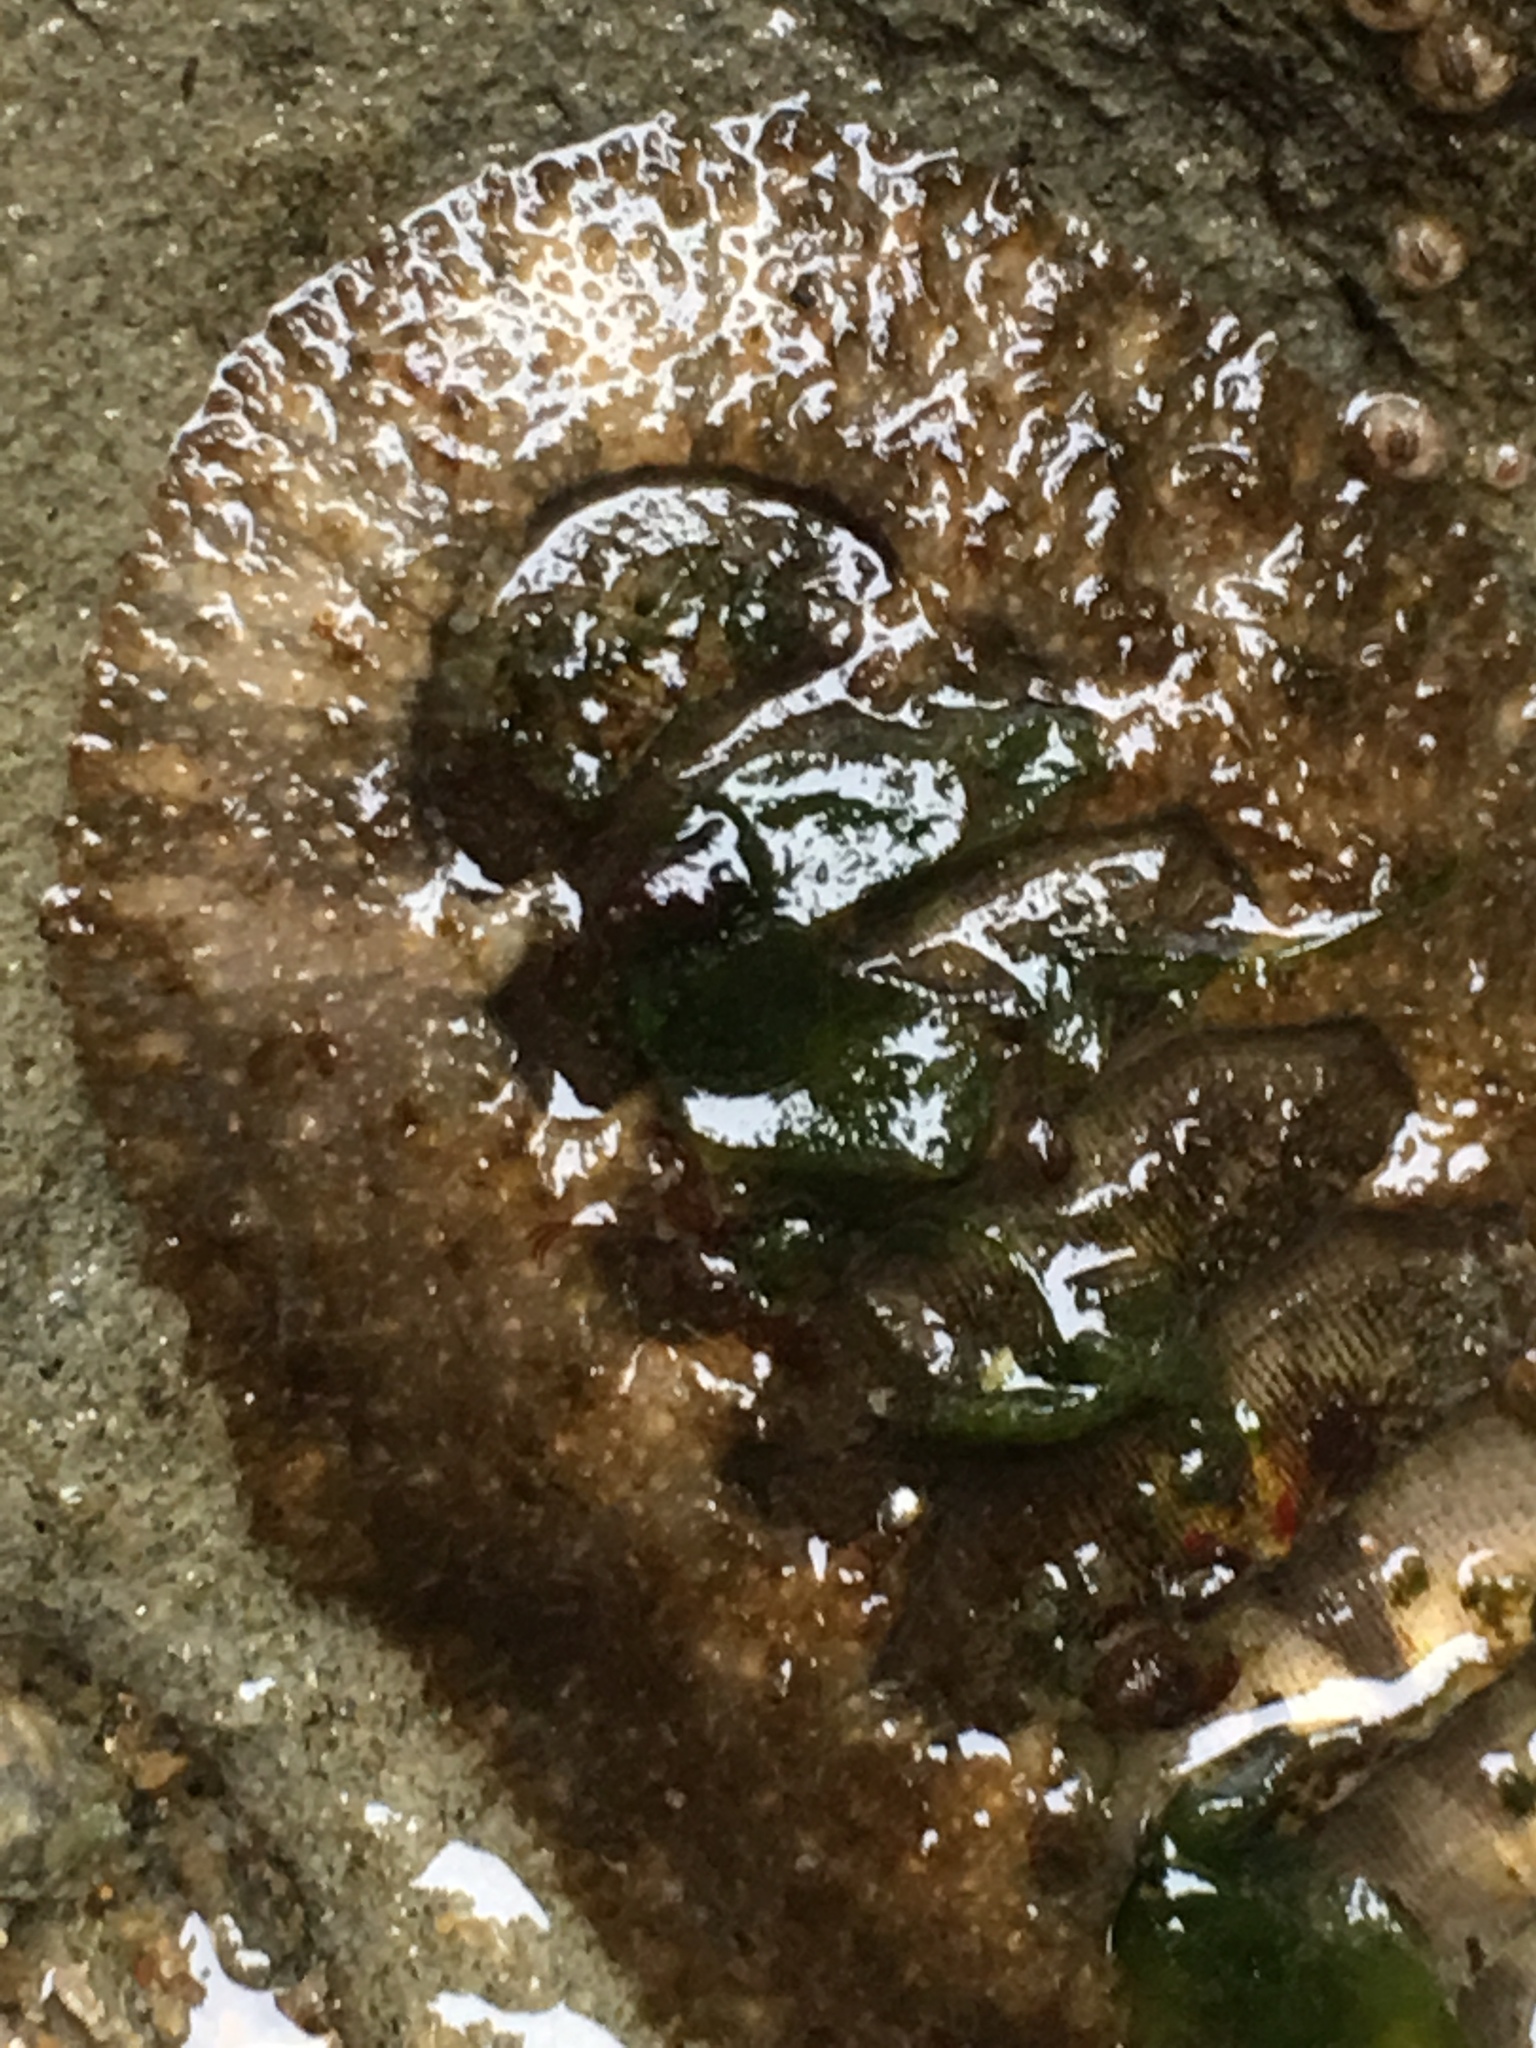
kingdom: Animalia
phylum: Mollusca
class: Polyplacophora
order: Chitonida
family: Mopaliidae
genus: Mopalia
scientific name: Mopalia hindsii
